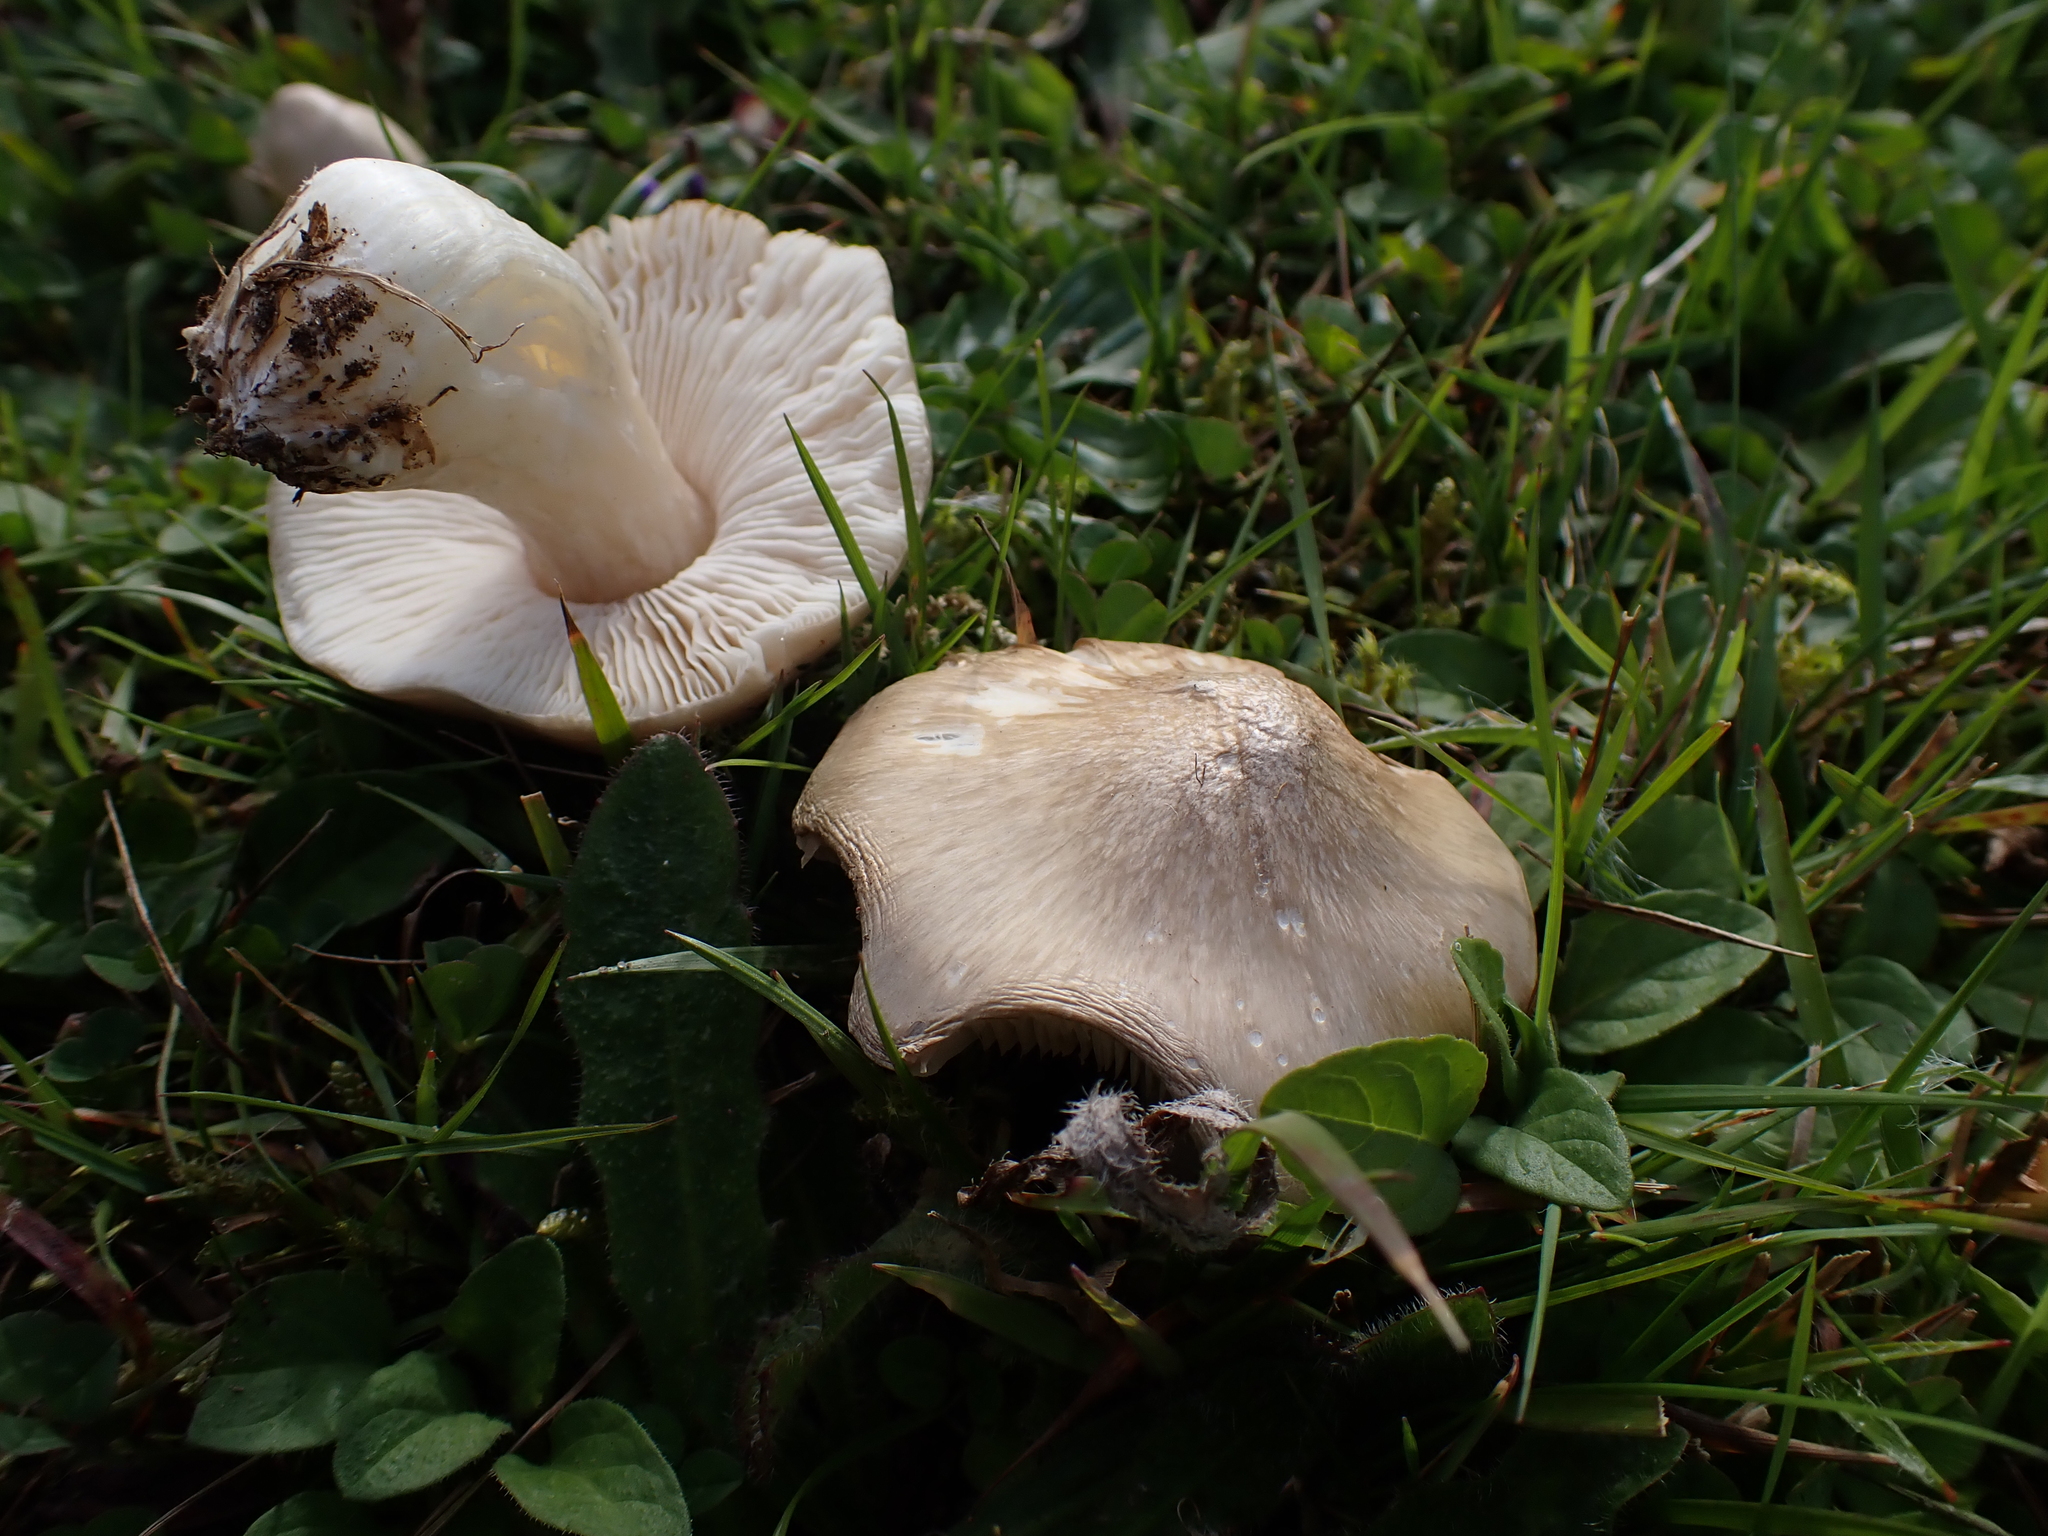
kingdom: Fungi
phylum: Basidiomycota
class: Agaricomycetes
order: Agaricales
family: Entolomataceae
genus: Entoloma
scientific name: Entoloma prunuloides
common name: Mealy pinkgill
